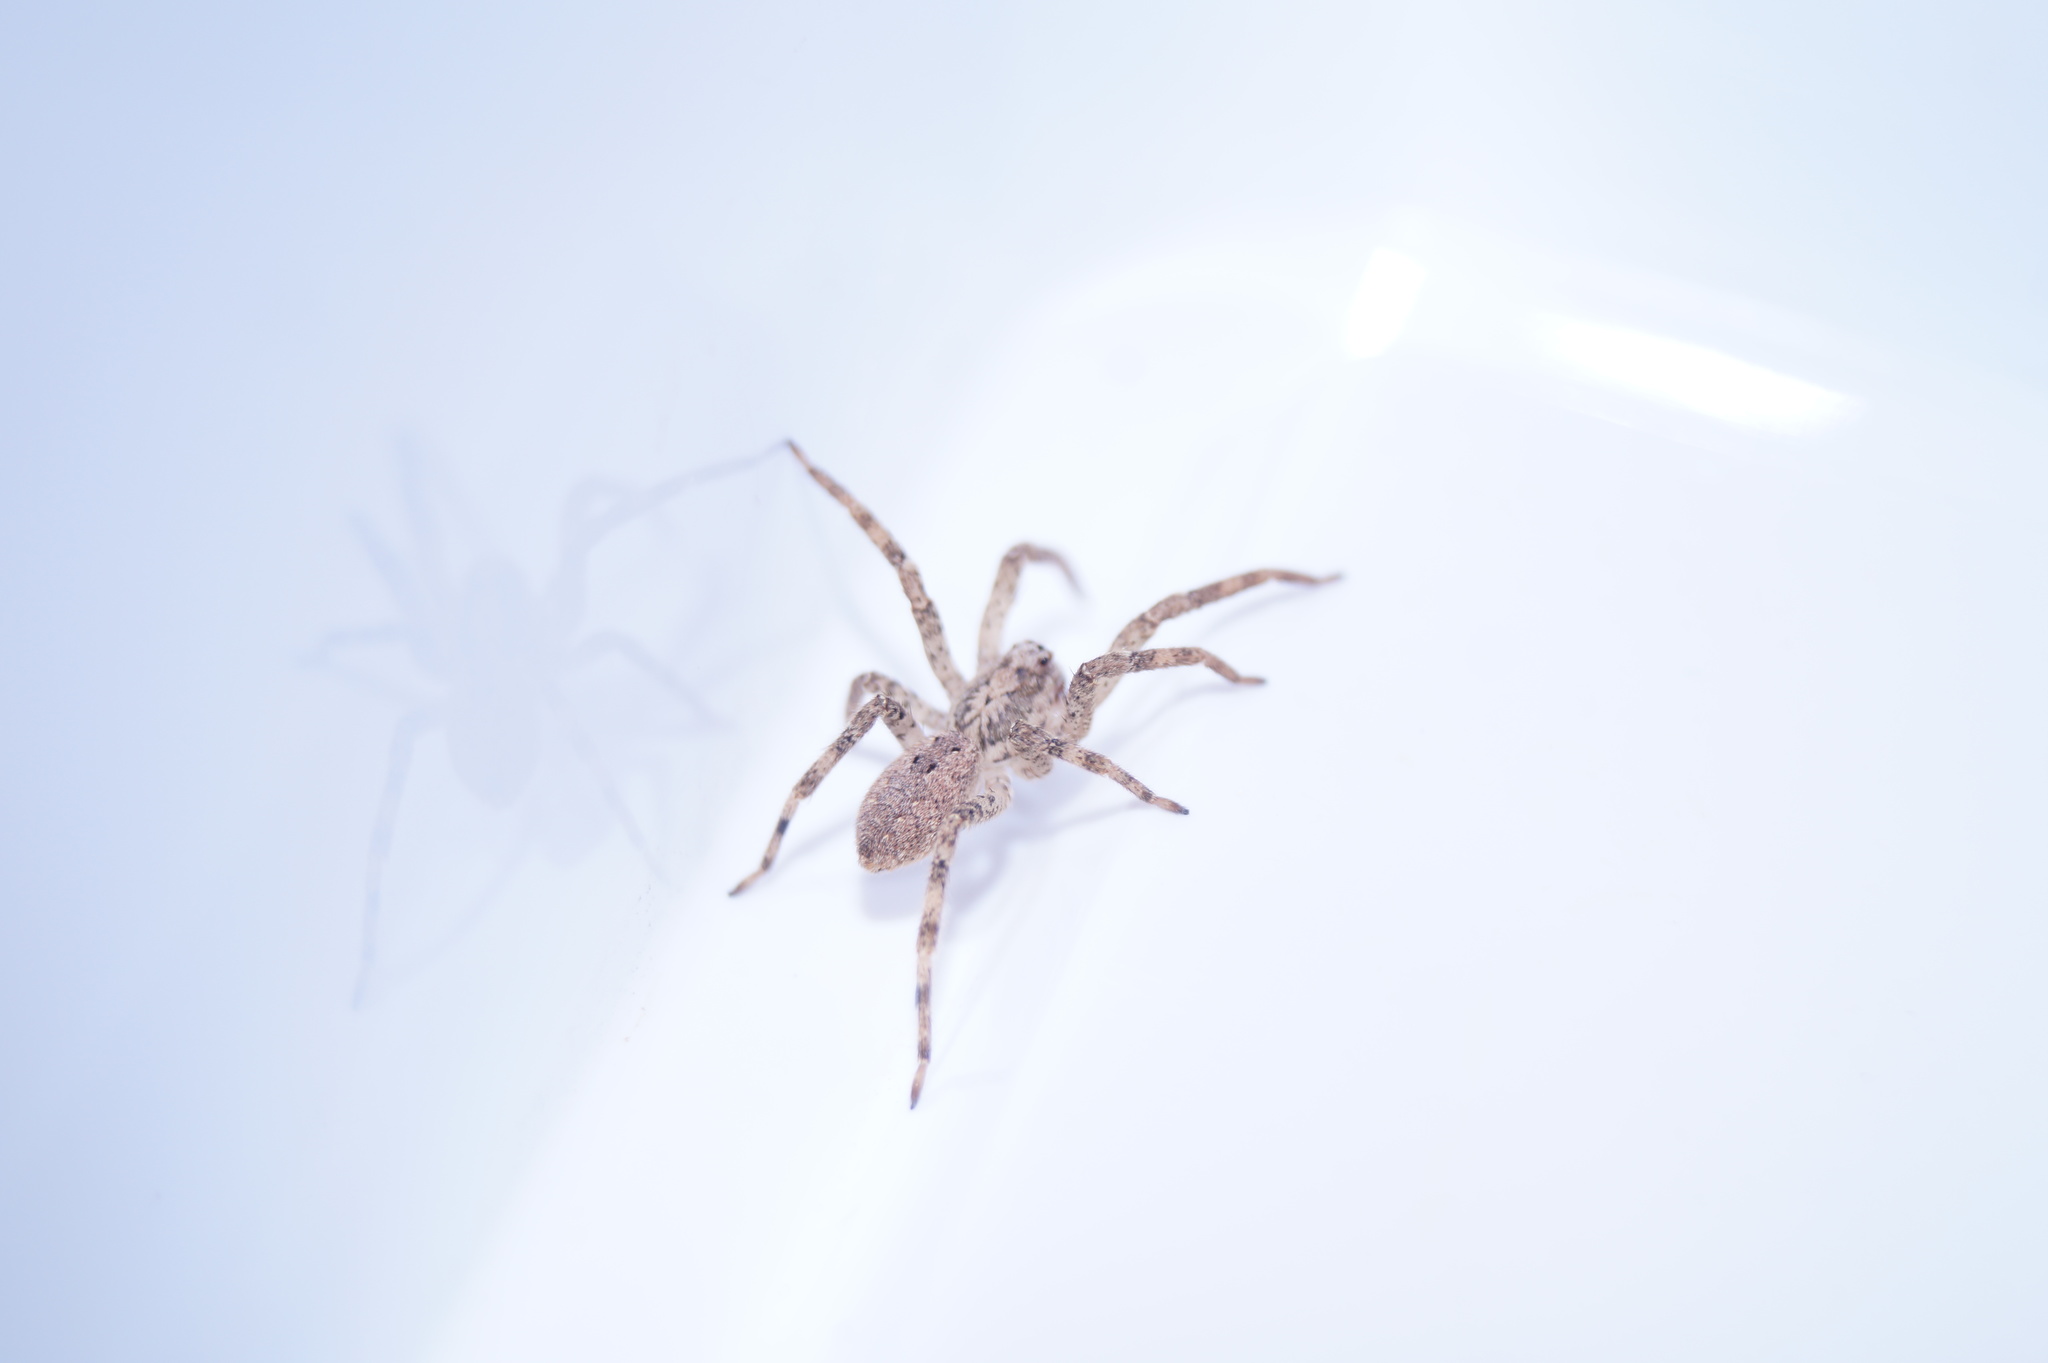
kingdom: Animalia
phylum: Arthropoda
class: Arachnida
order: Araneae
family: Zoropsidae
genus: Zoropsis
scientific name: Zoropsis spinimana
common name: Zoropsid spider
